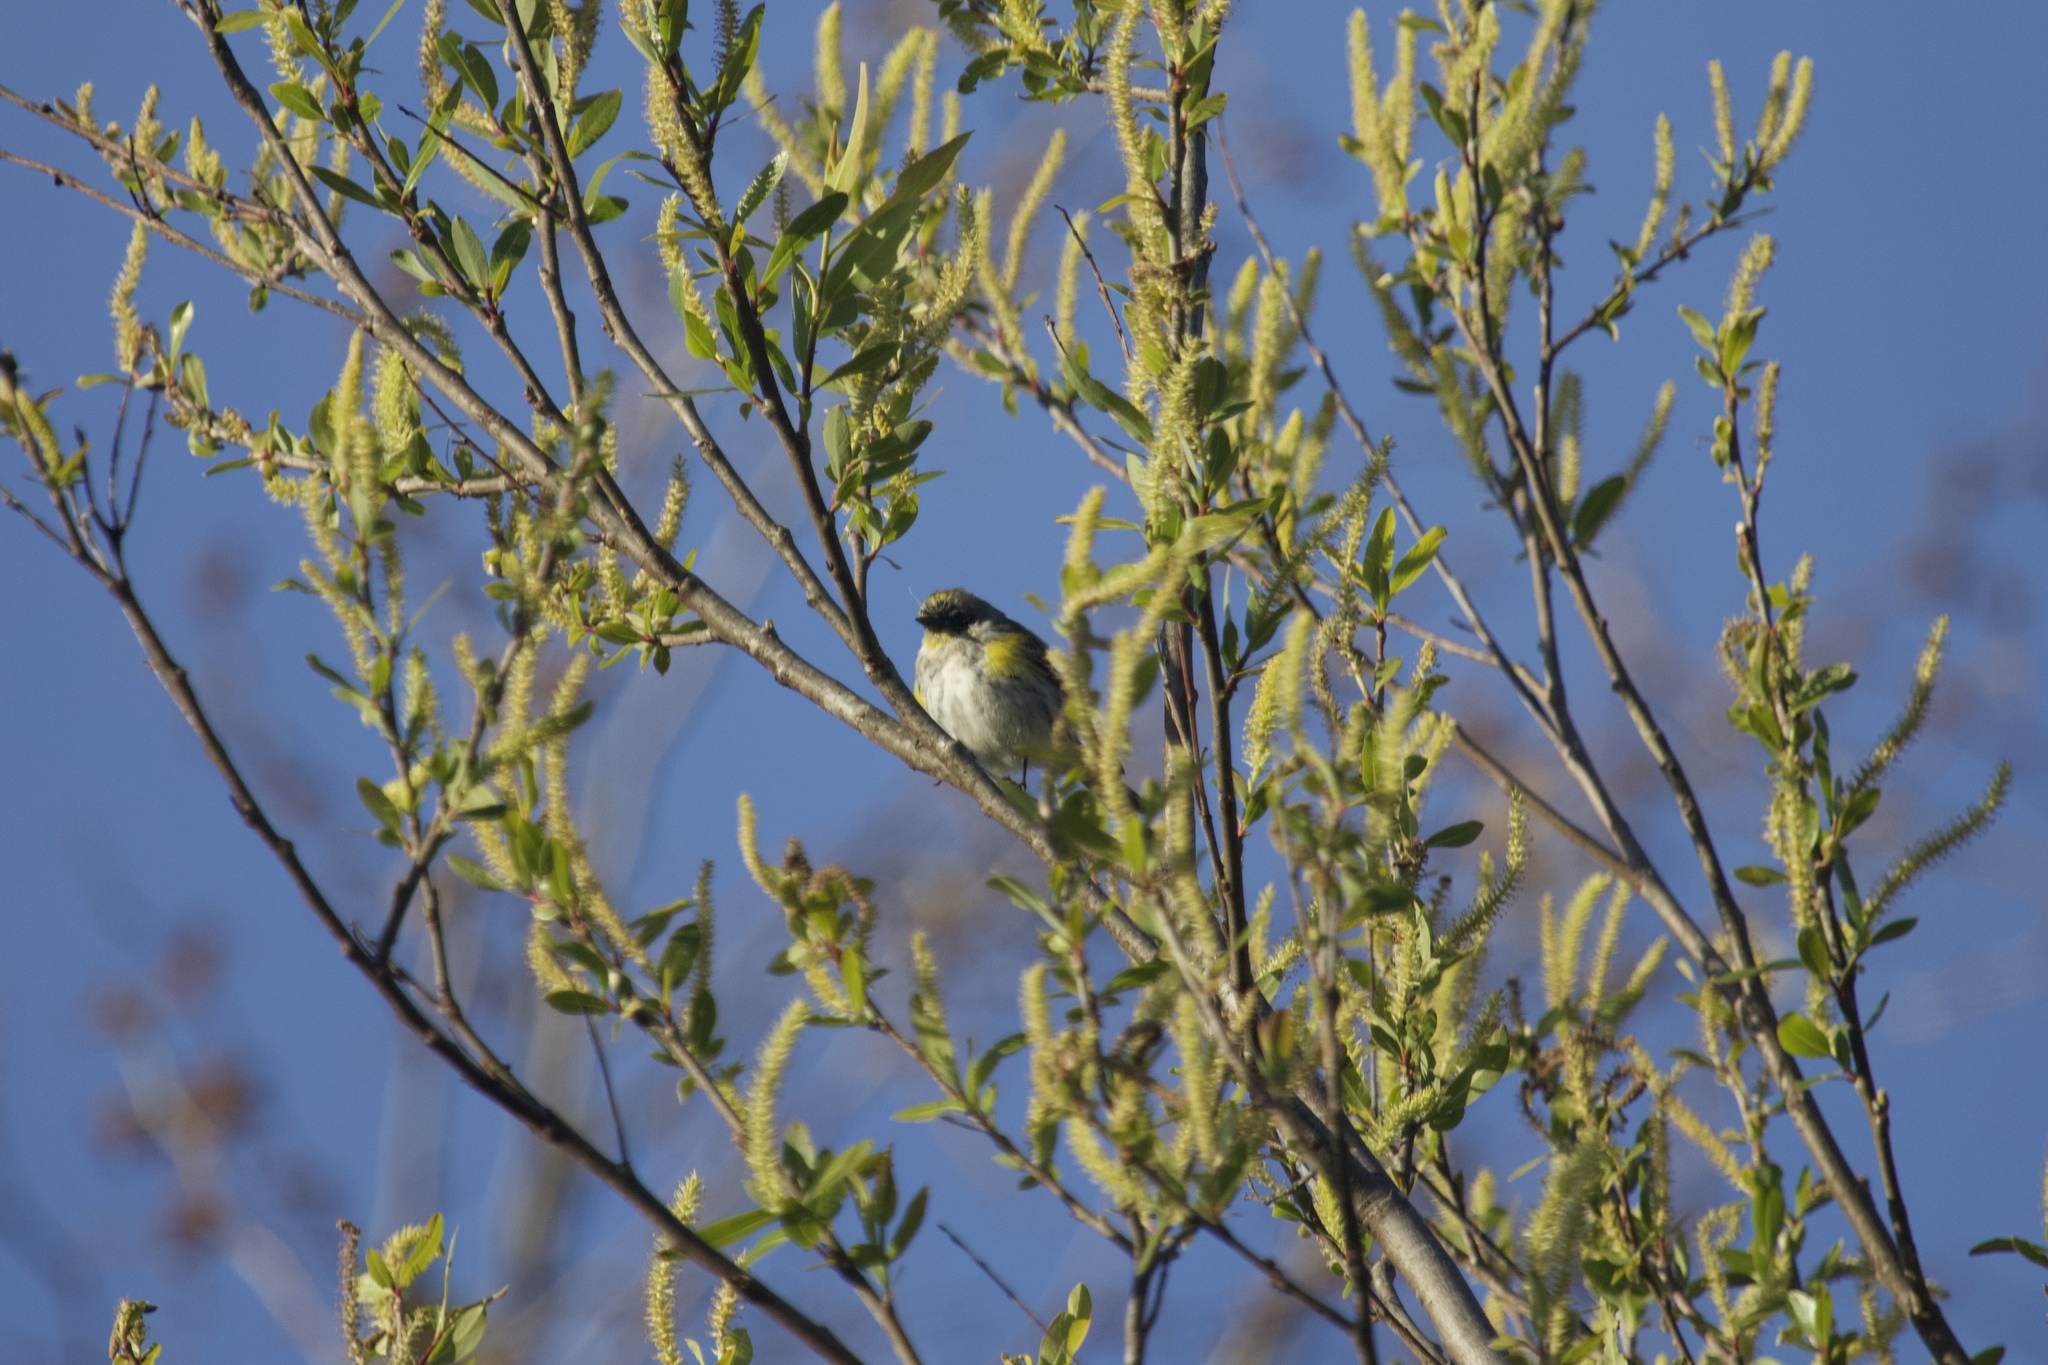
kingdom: Animalia
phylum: Chordata
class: Aves
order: Passeriformes
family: Parulidae
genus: Setophaga
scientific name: Setophaga coronata
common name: Myrtle warbler
